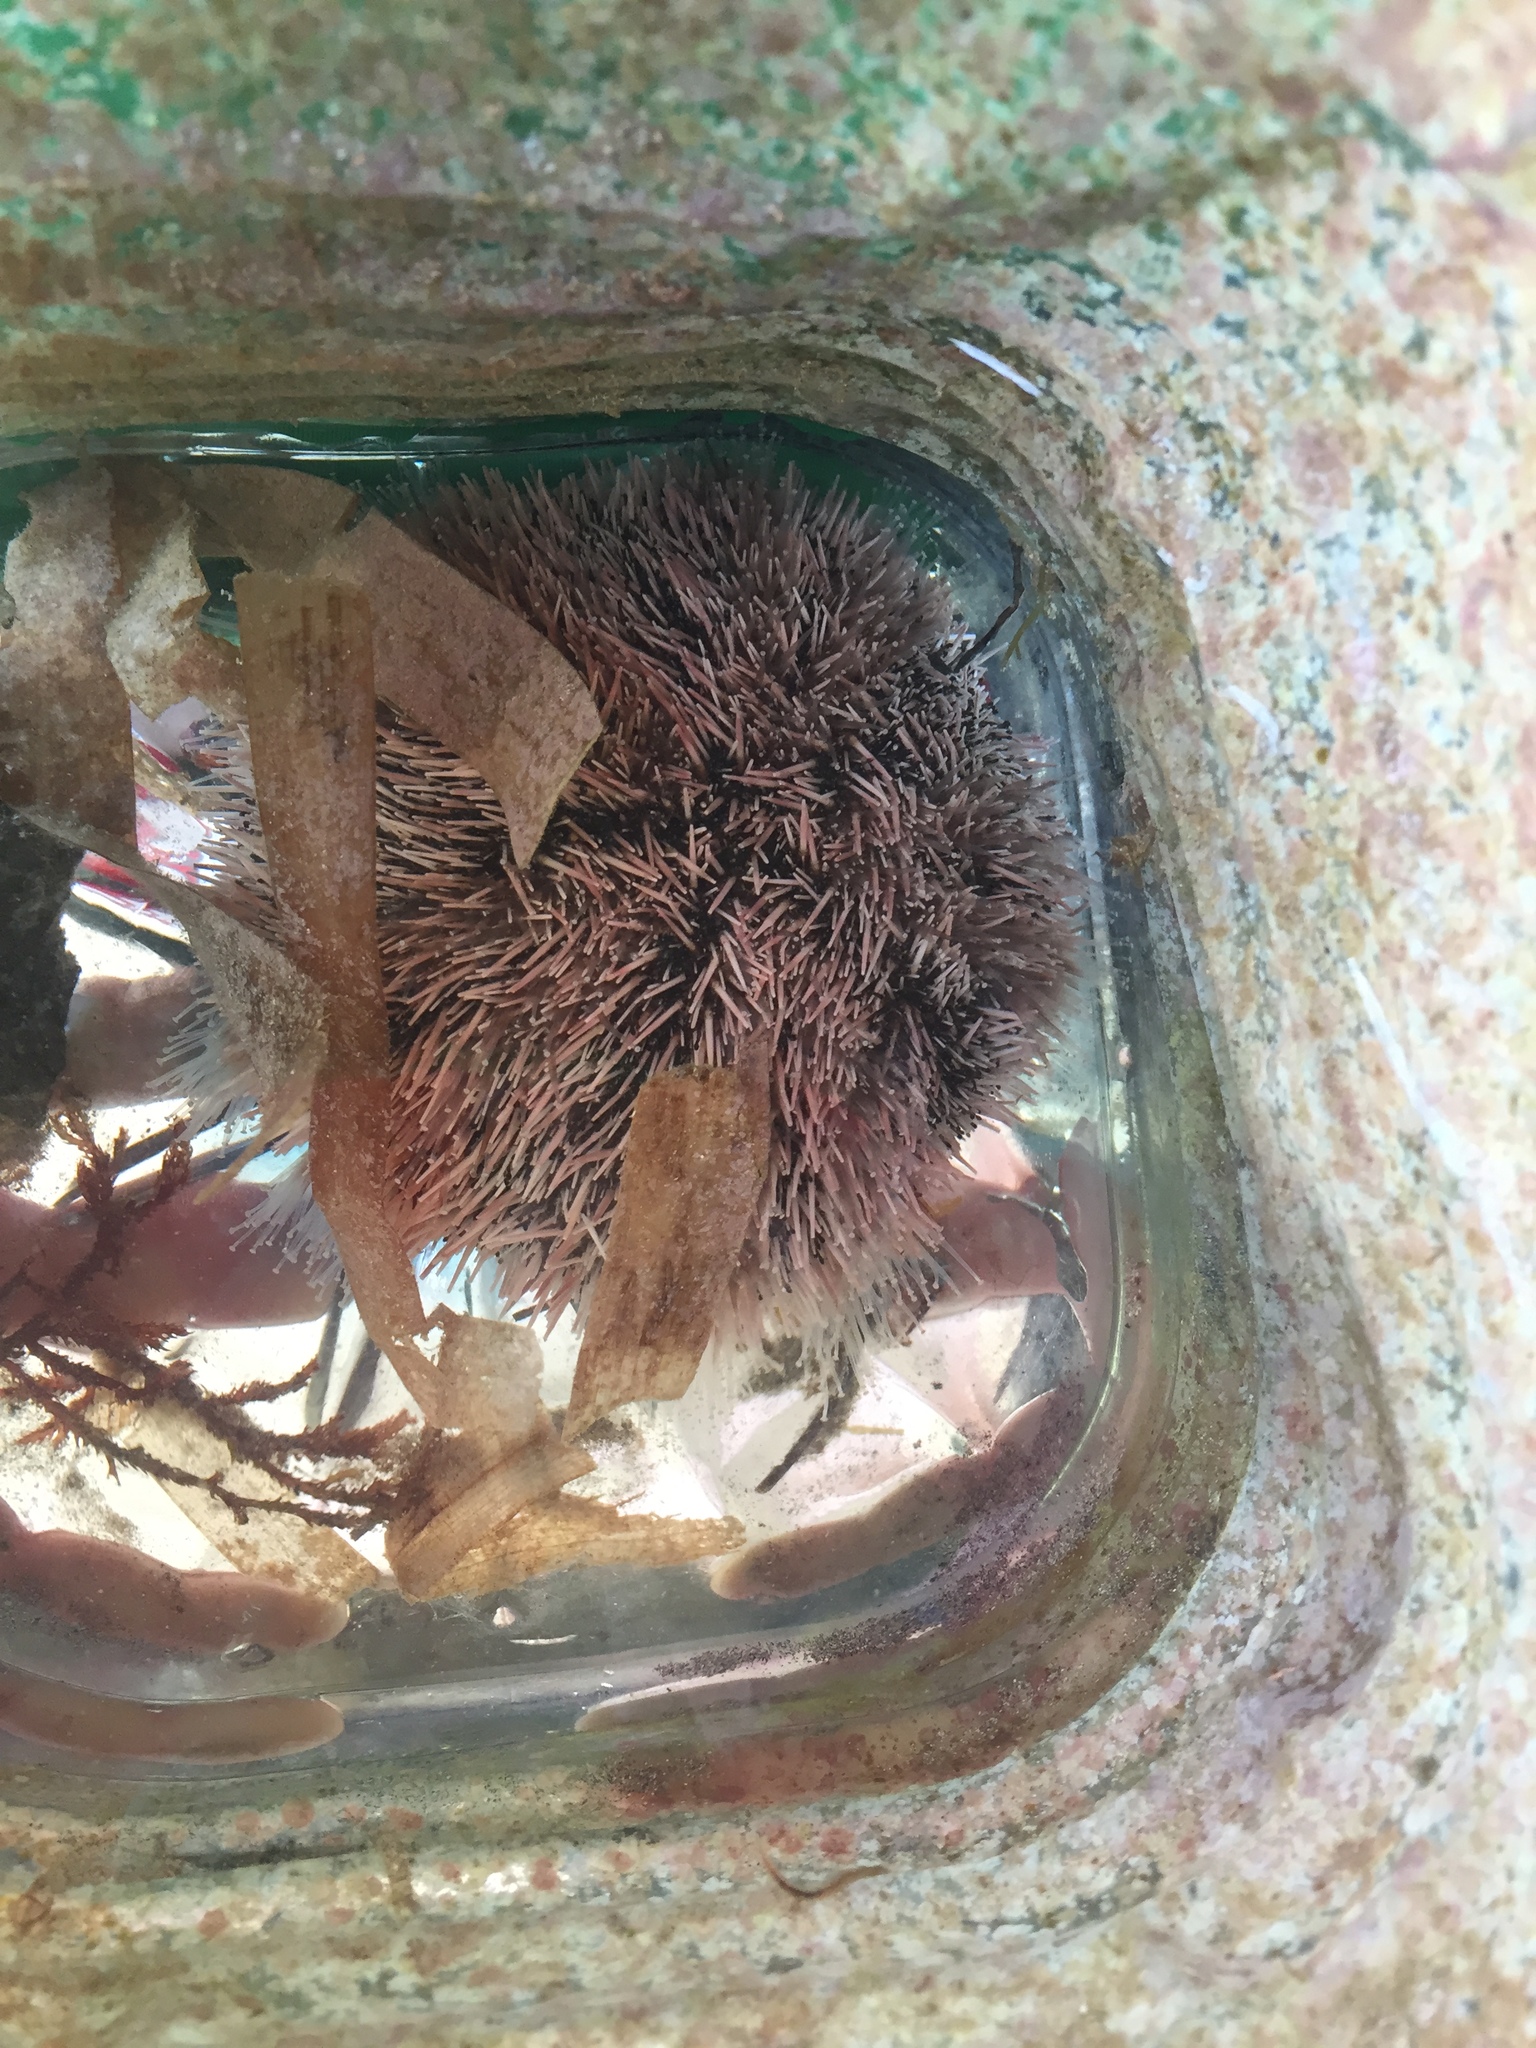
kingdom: Animalia
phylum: Echinodermata
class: Echinoidea
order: Camarodonta
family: Toxopneustidae
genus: Tripneustes
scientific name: Tripneustes ventricosus
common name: West indian sea egg
